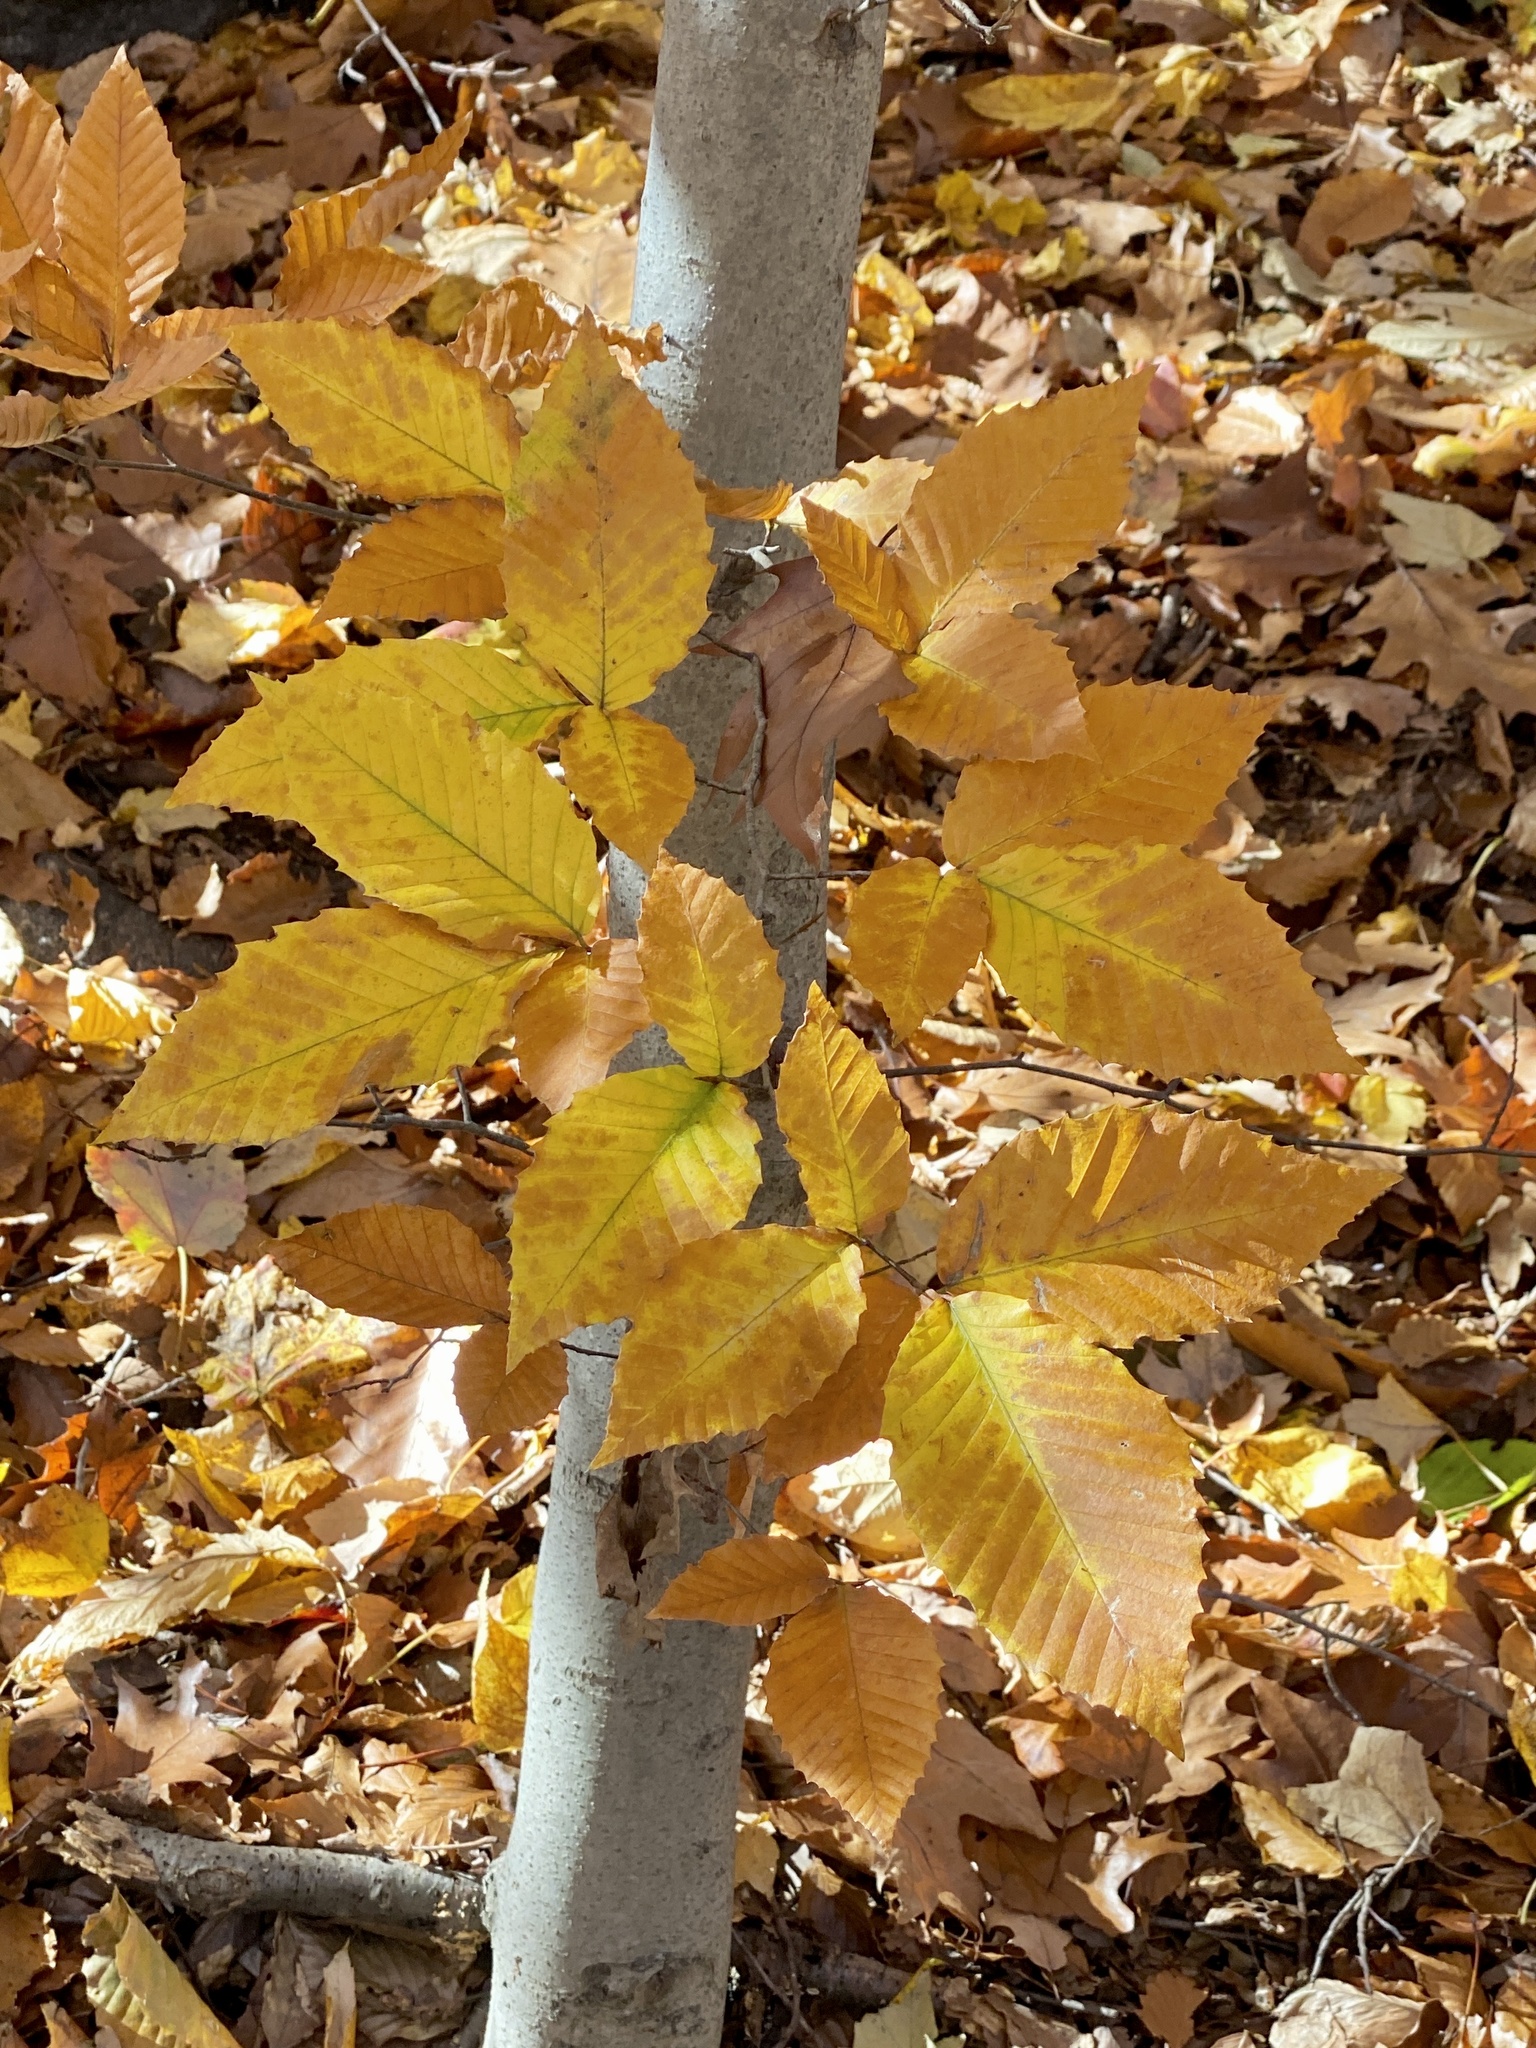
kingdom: Plantae
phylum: Tracheophyta
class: Magnoliopsida
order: Fagales
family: Fagaceae
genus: Fagus
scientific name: Fagus grandifolia
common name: American beech
